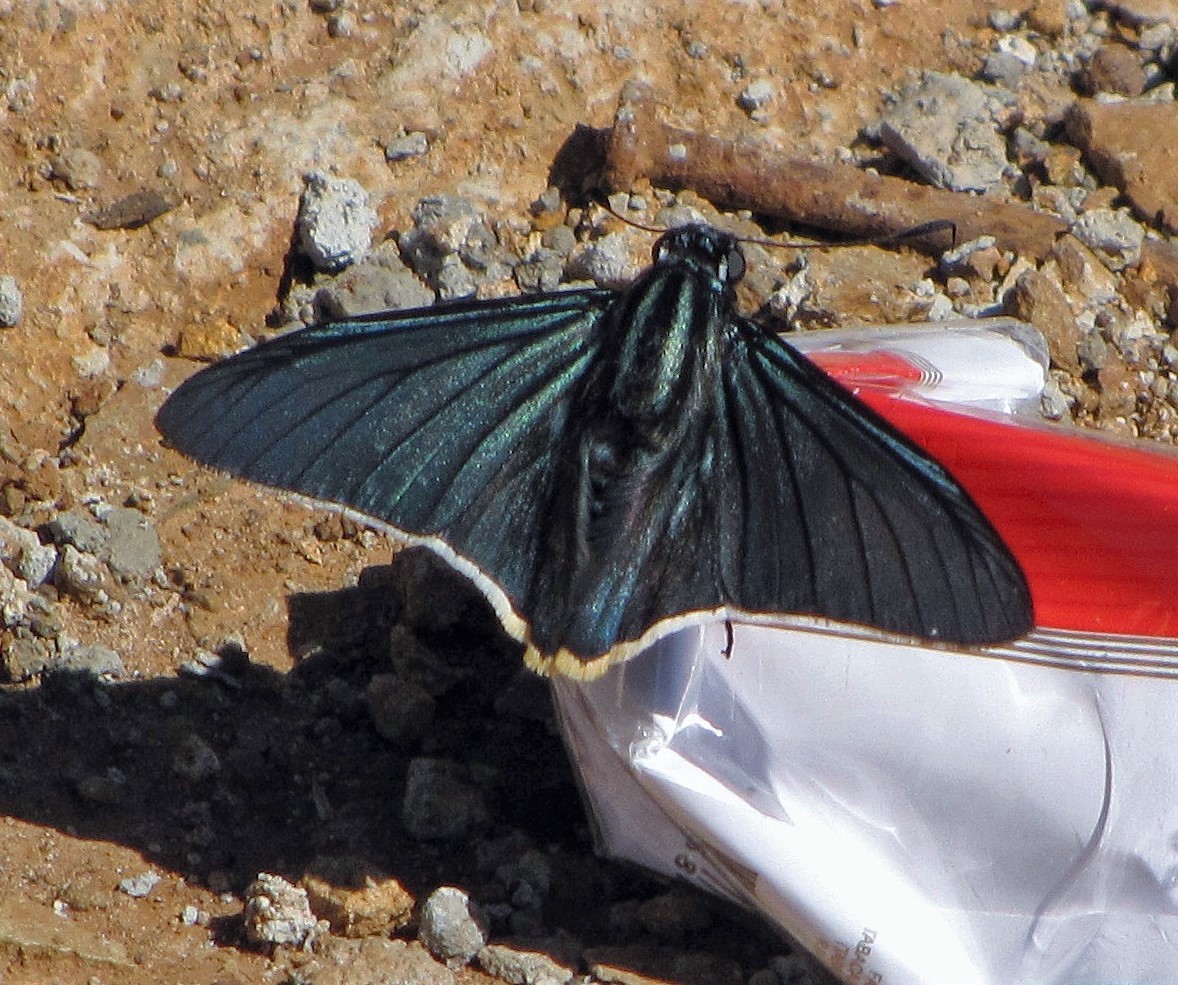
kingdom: Animalia
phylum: Arthropoda
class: Insecta
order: Lepidoptera
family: Hesperiidae
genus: Phocides
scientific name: Phocides charon
